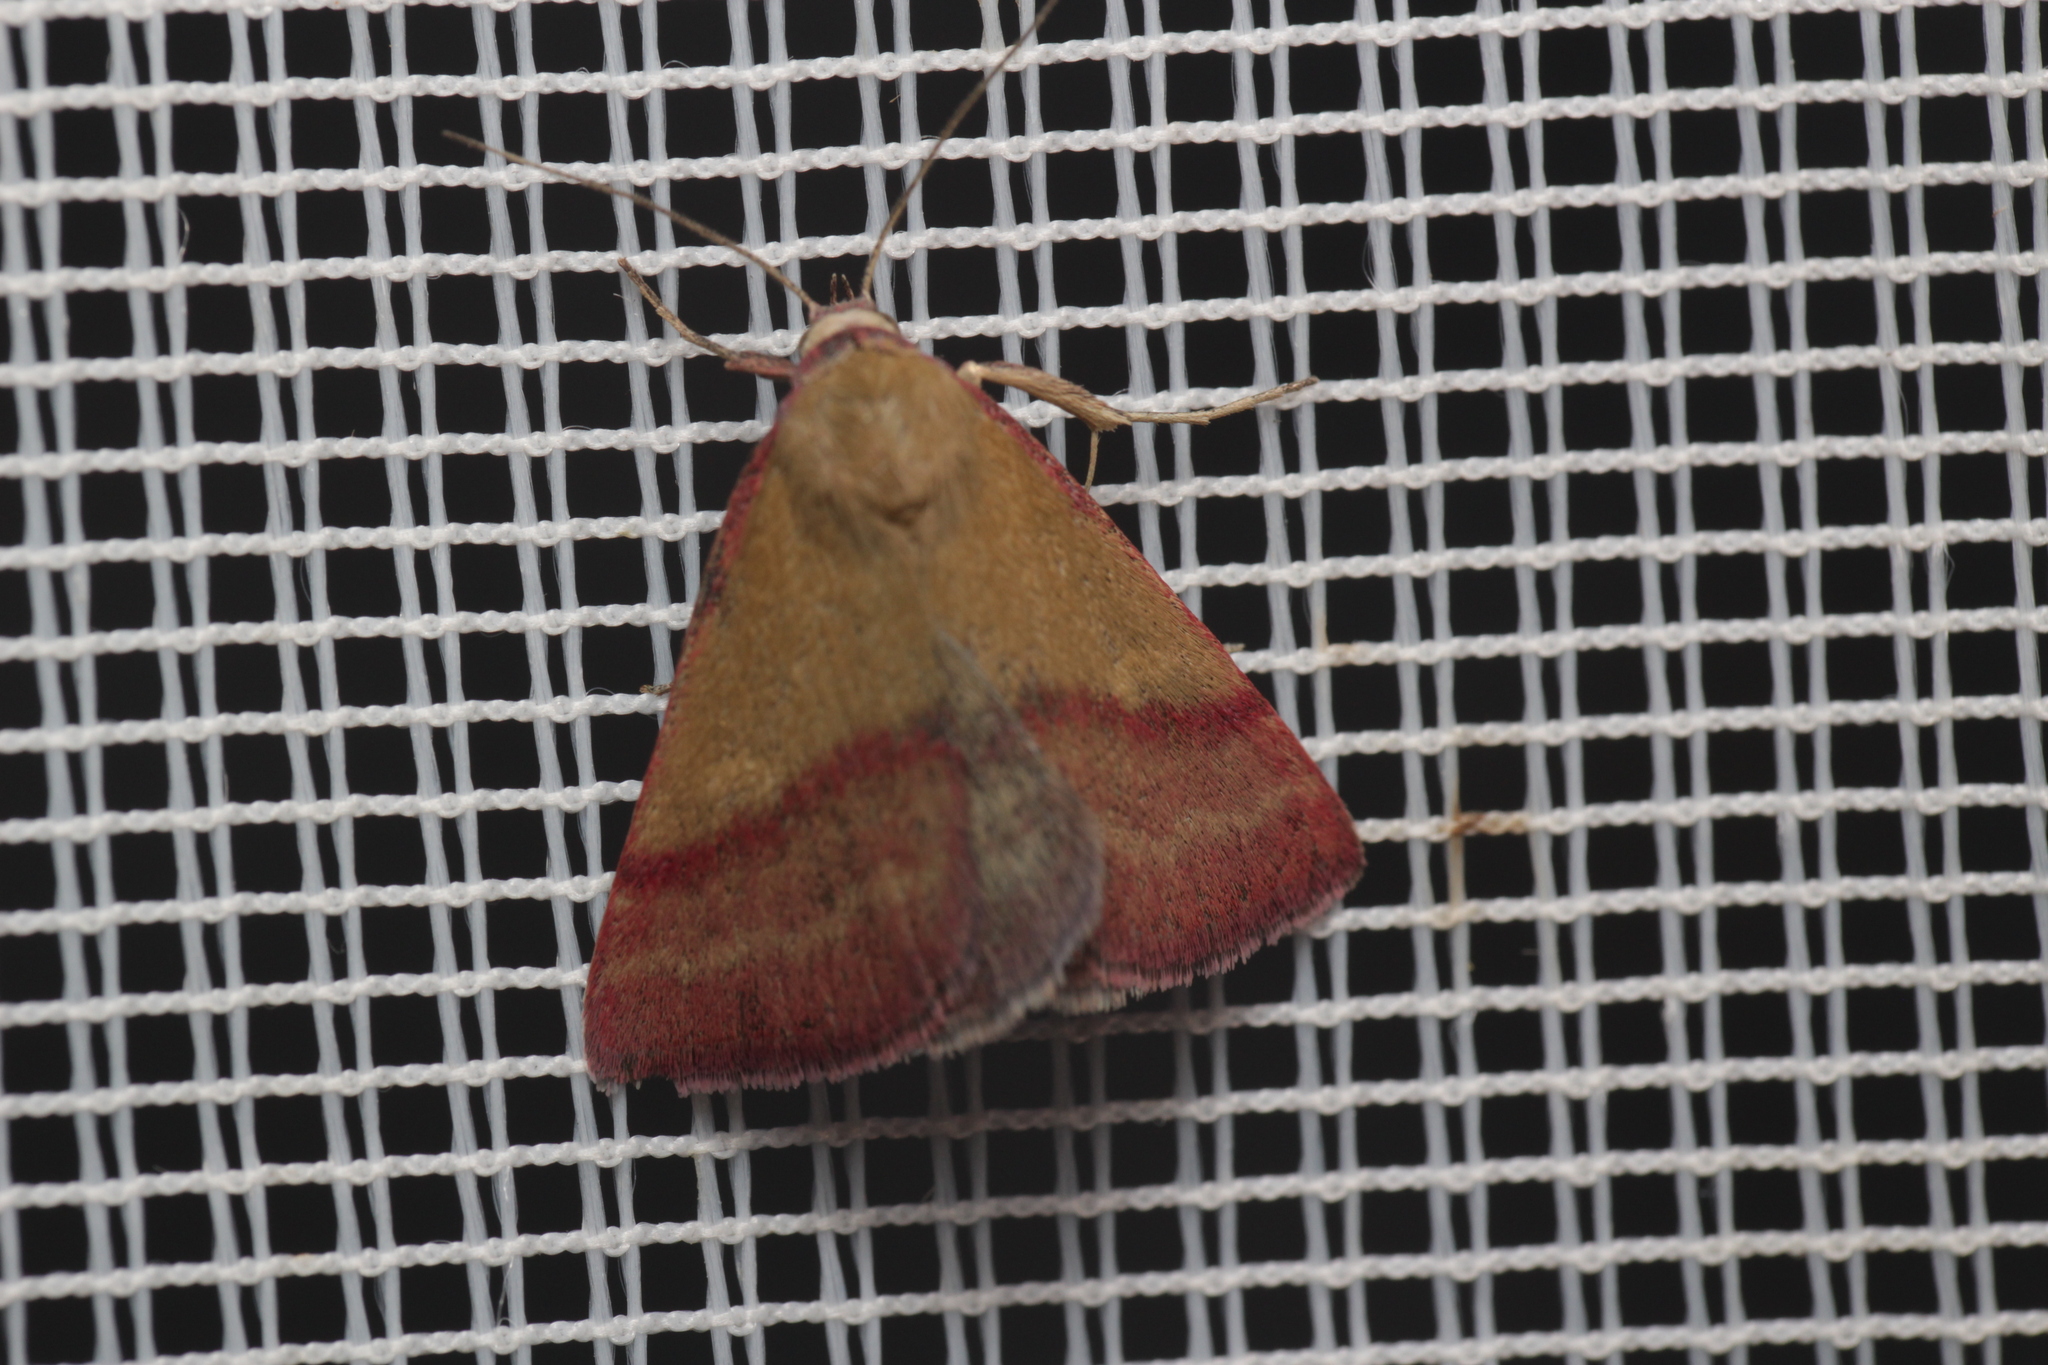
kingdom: Animalia
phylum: Arthropoda
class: Insecta
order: Lepidoptera
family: Erebidae
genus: Phytometra
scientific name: Phytometra viridaria
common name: Small purple-barred
